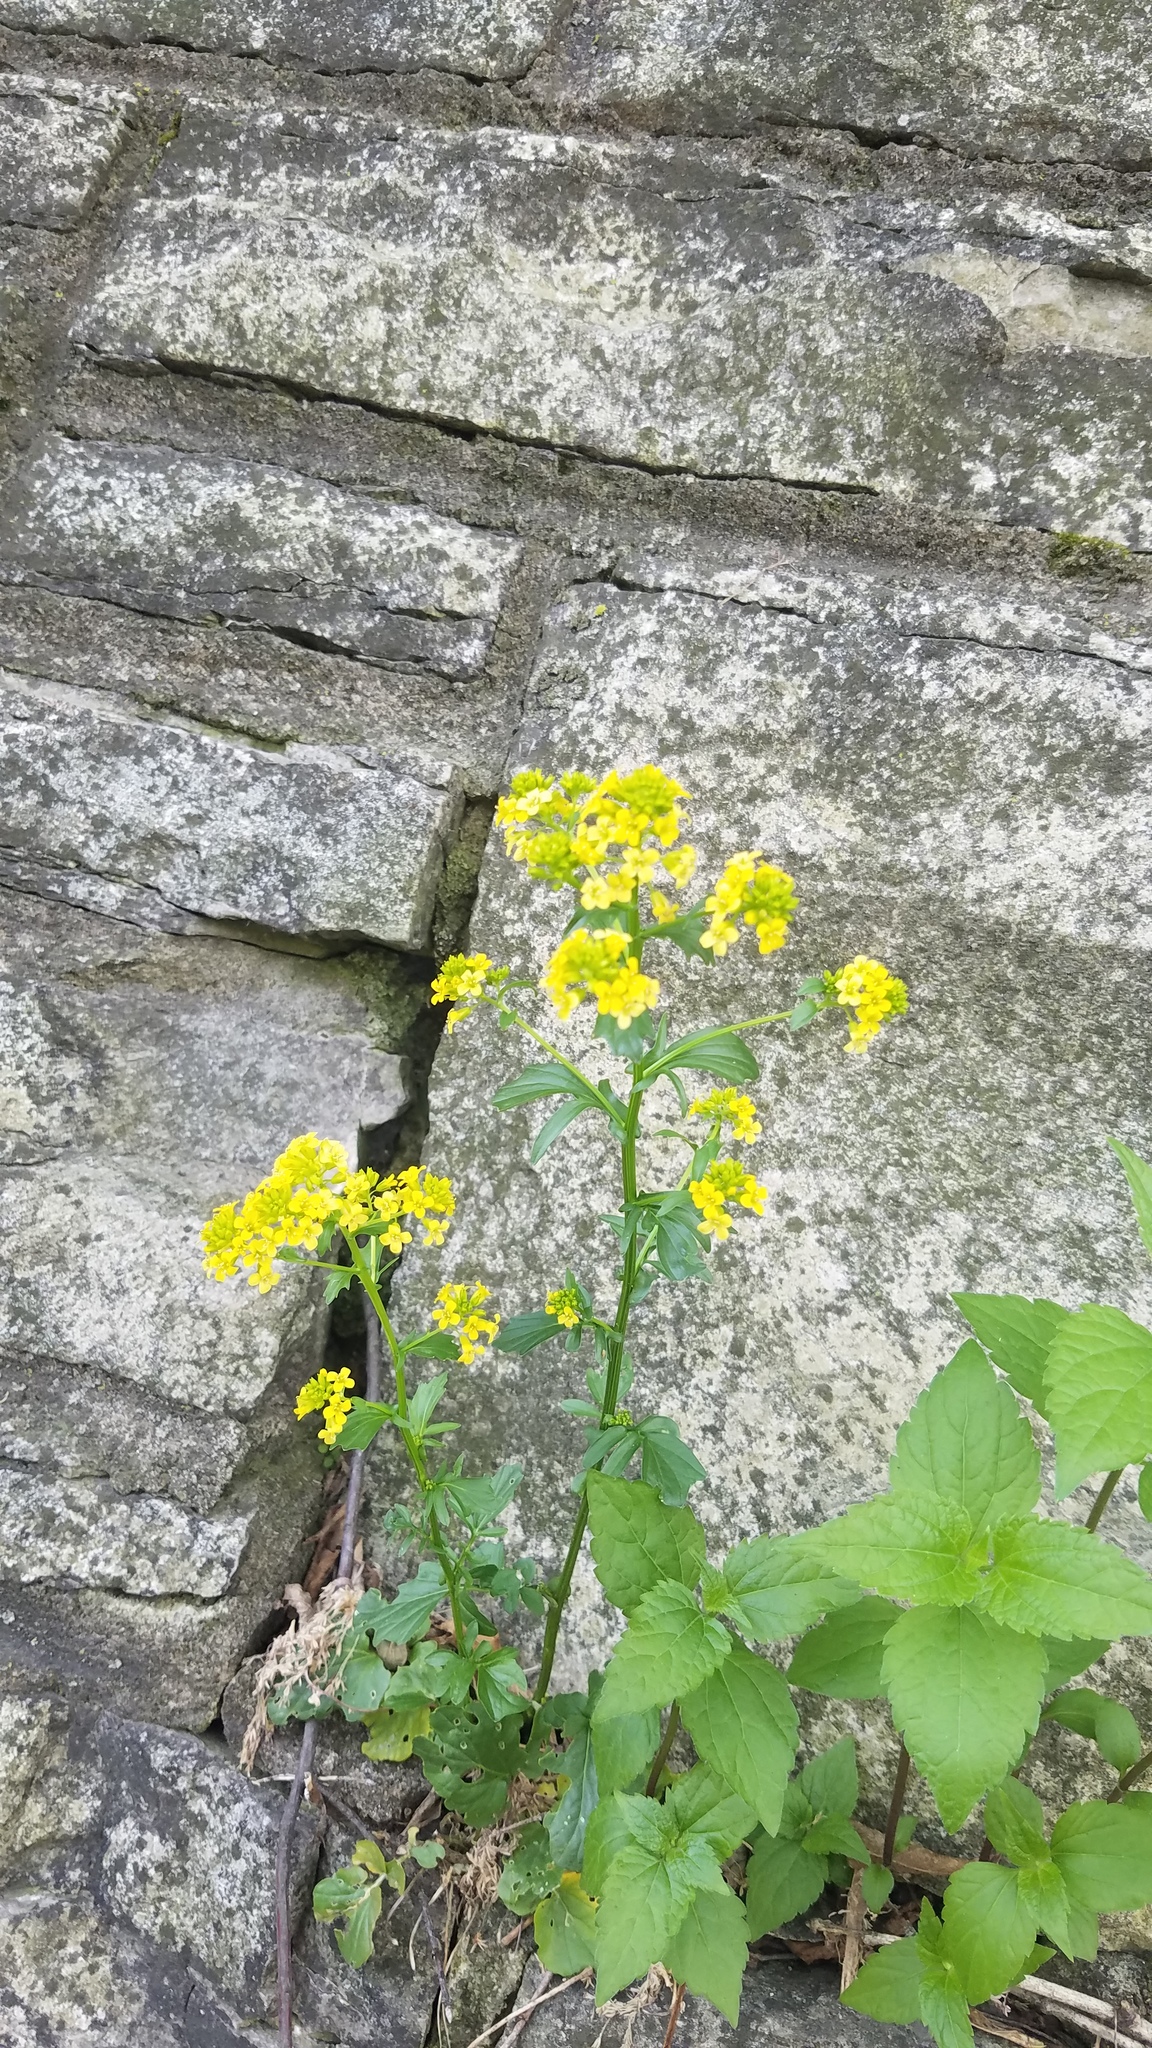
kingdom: Plantae
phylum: Tracheophyta
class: Magnoliopsida
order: Brassicales
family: Brassicaceae
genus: Barbarea
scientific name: Barbarea vulgaris
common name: Cressy-greens
